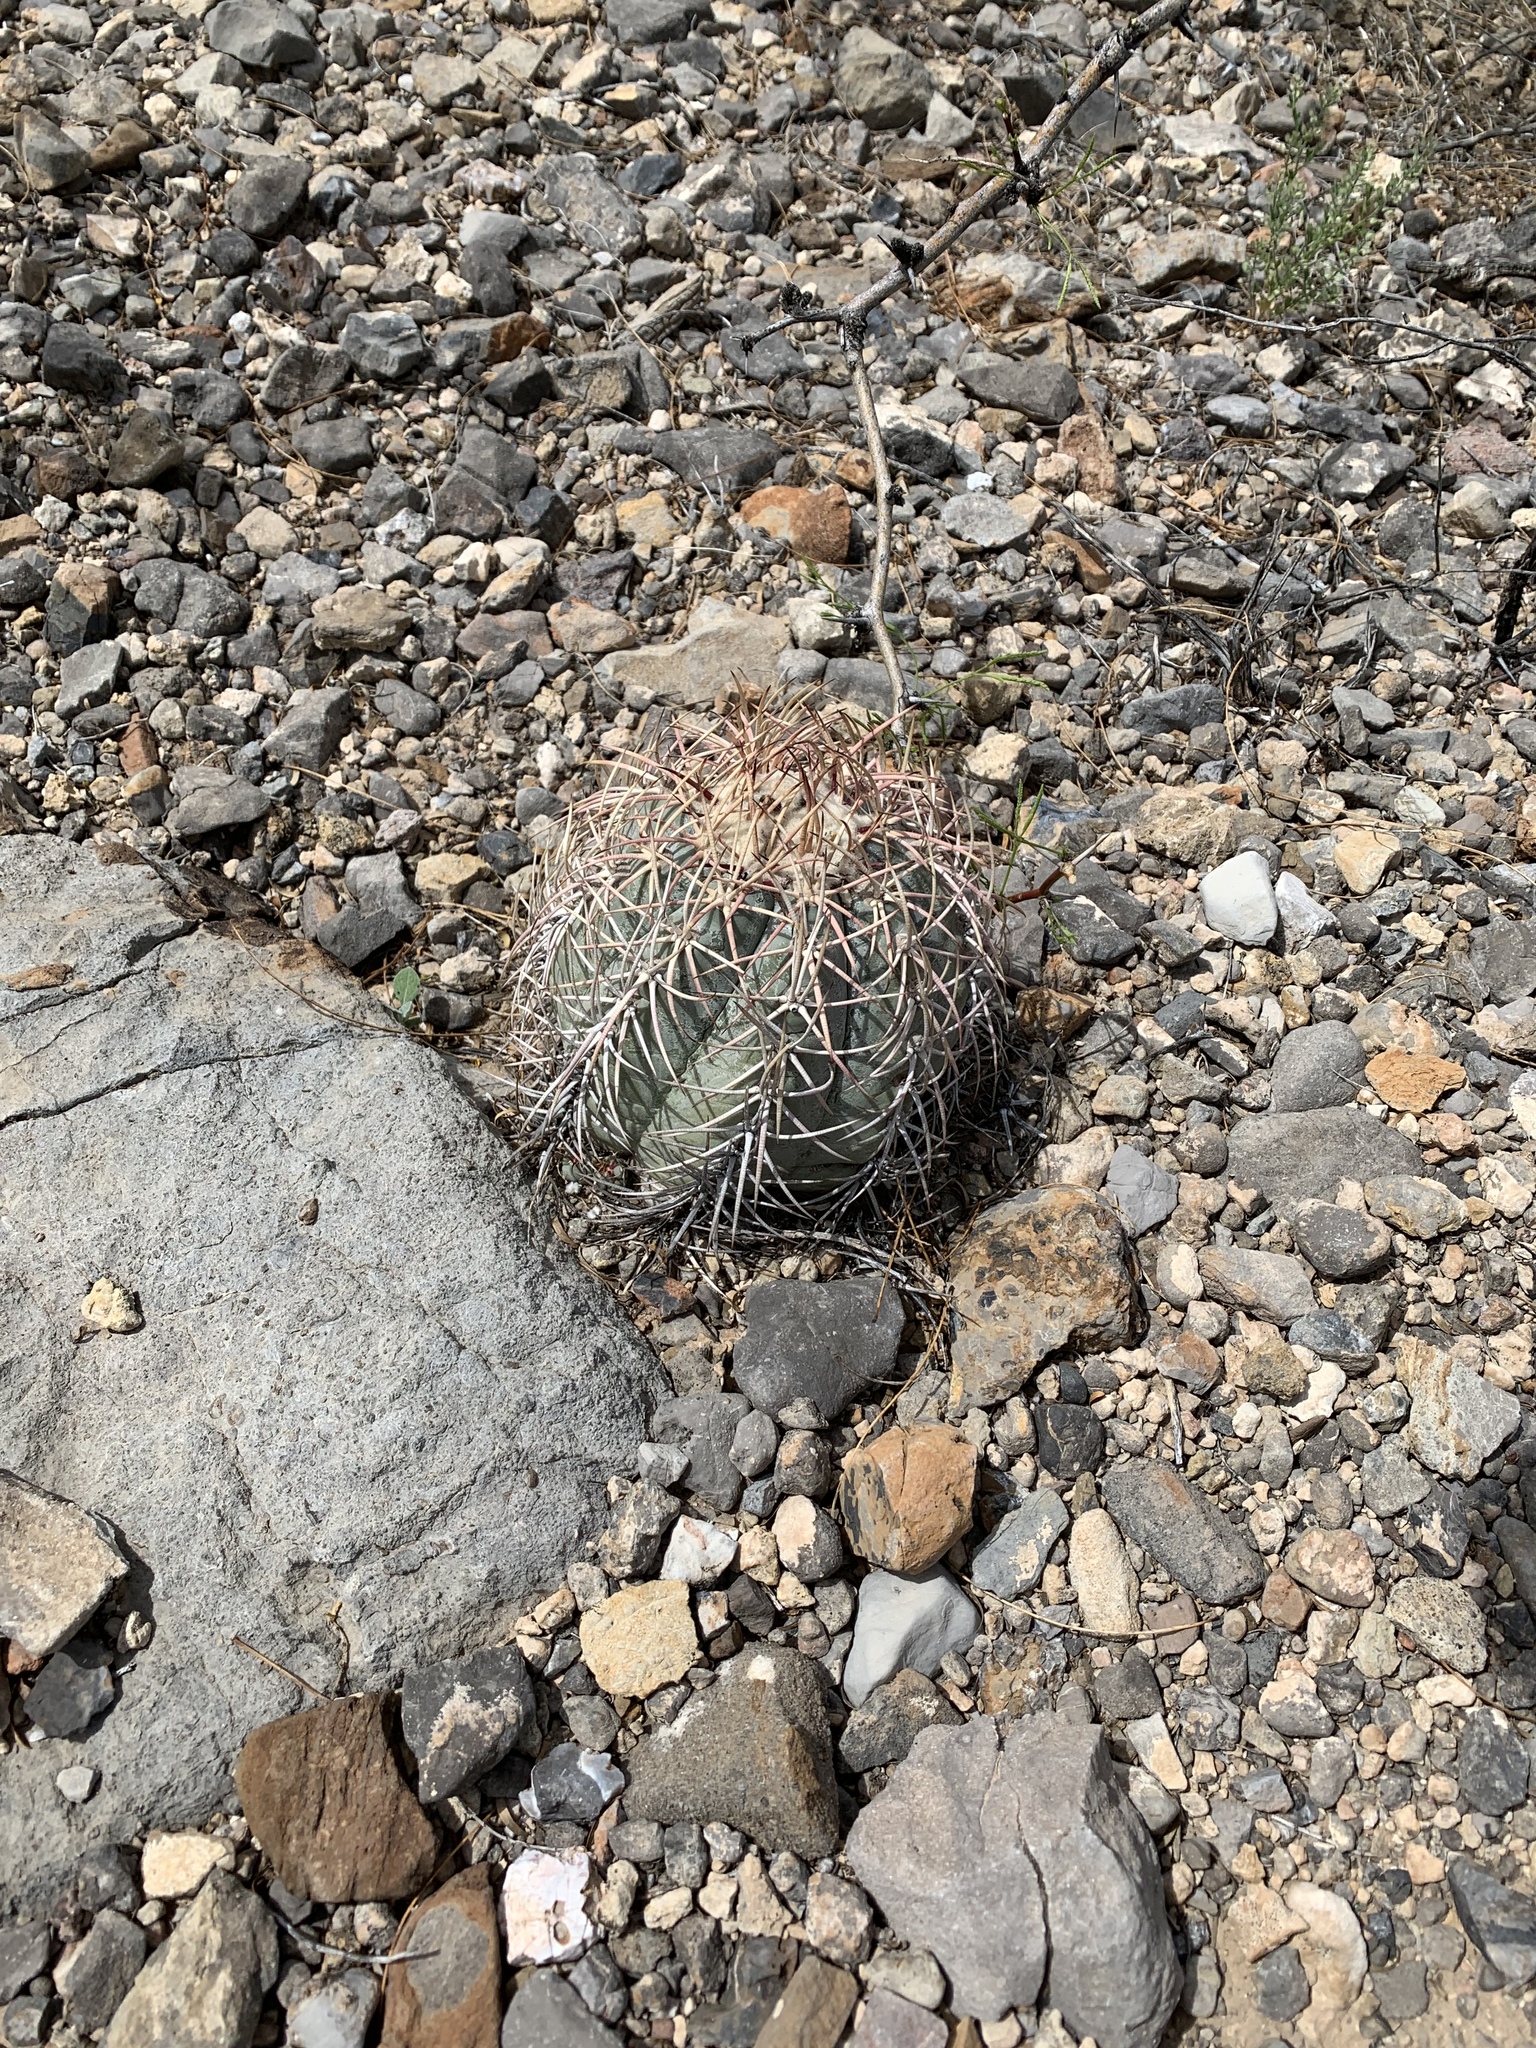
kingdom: Plantae
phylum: Tracheophyta
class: Magnoliopsida
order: Caryophyllales
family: Cactaceae
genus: Echinocactus
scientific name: Echinocactus horizonthalonius
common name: Devilshead
